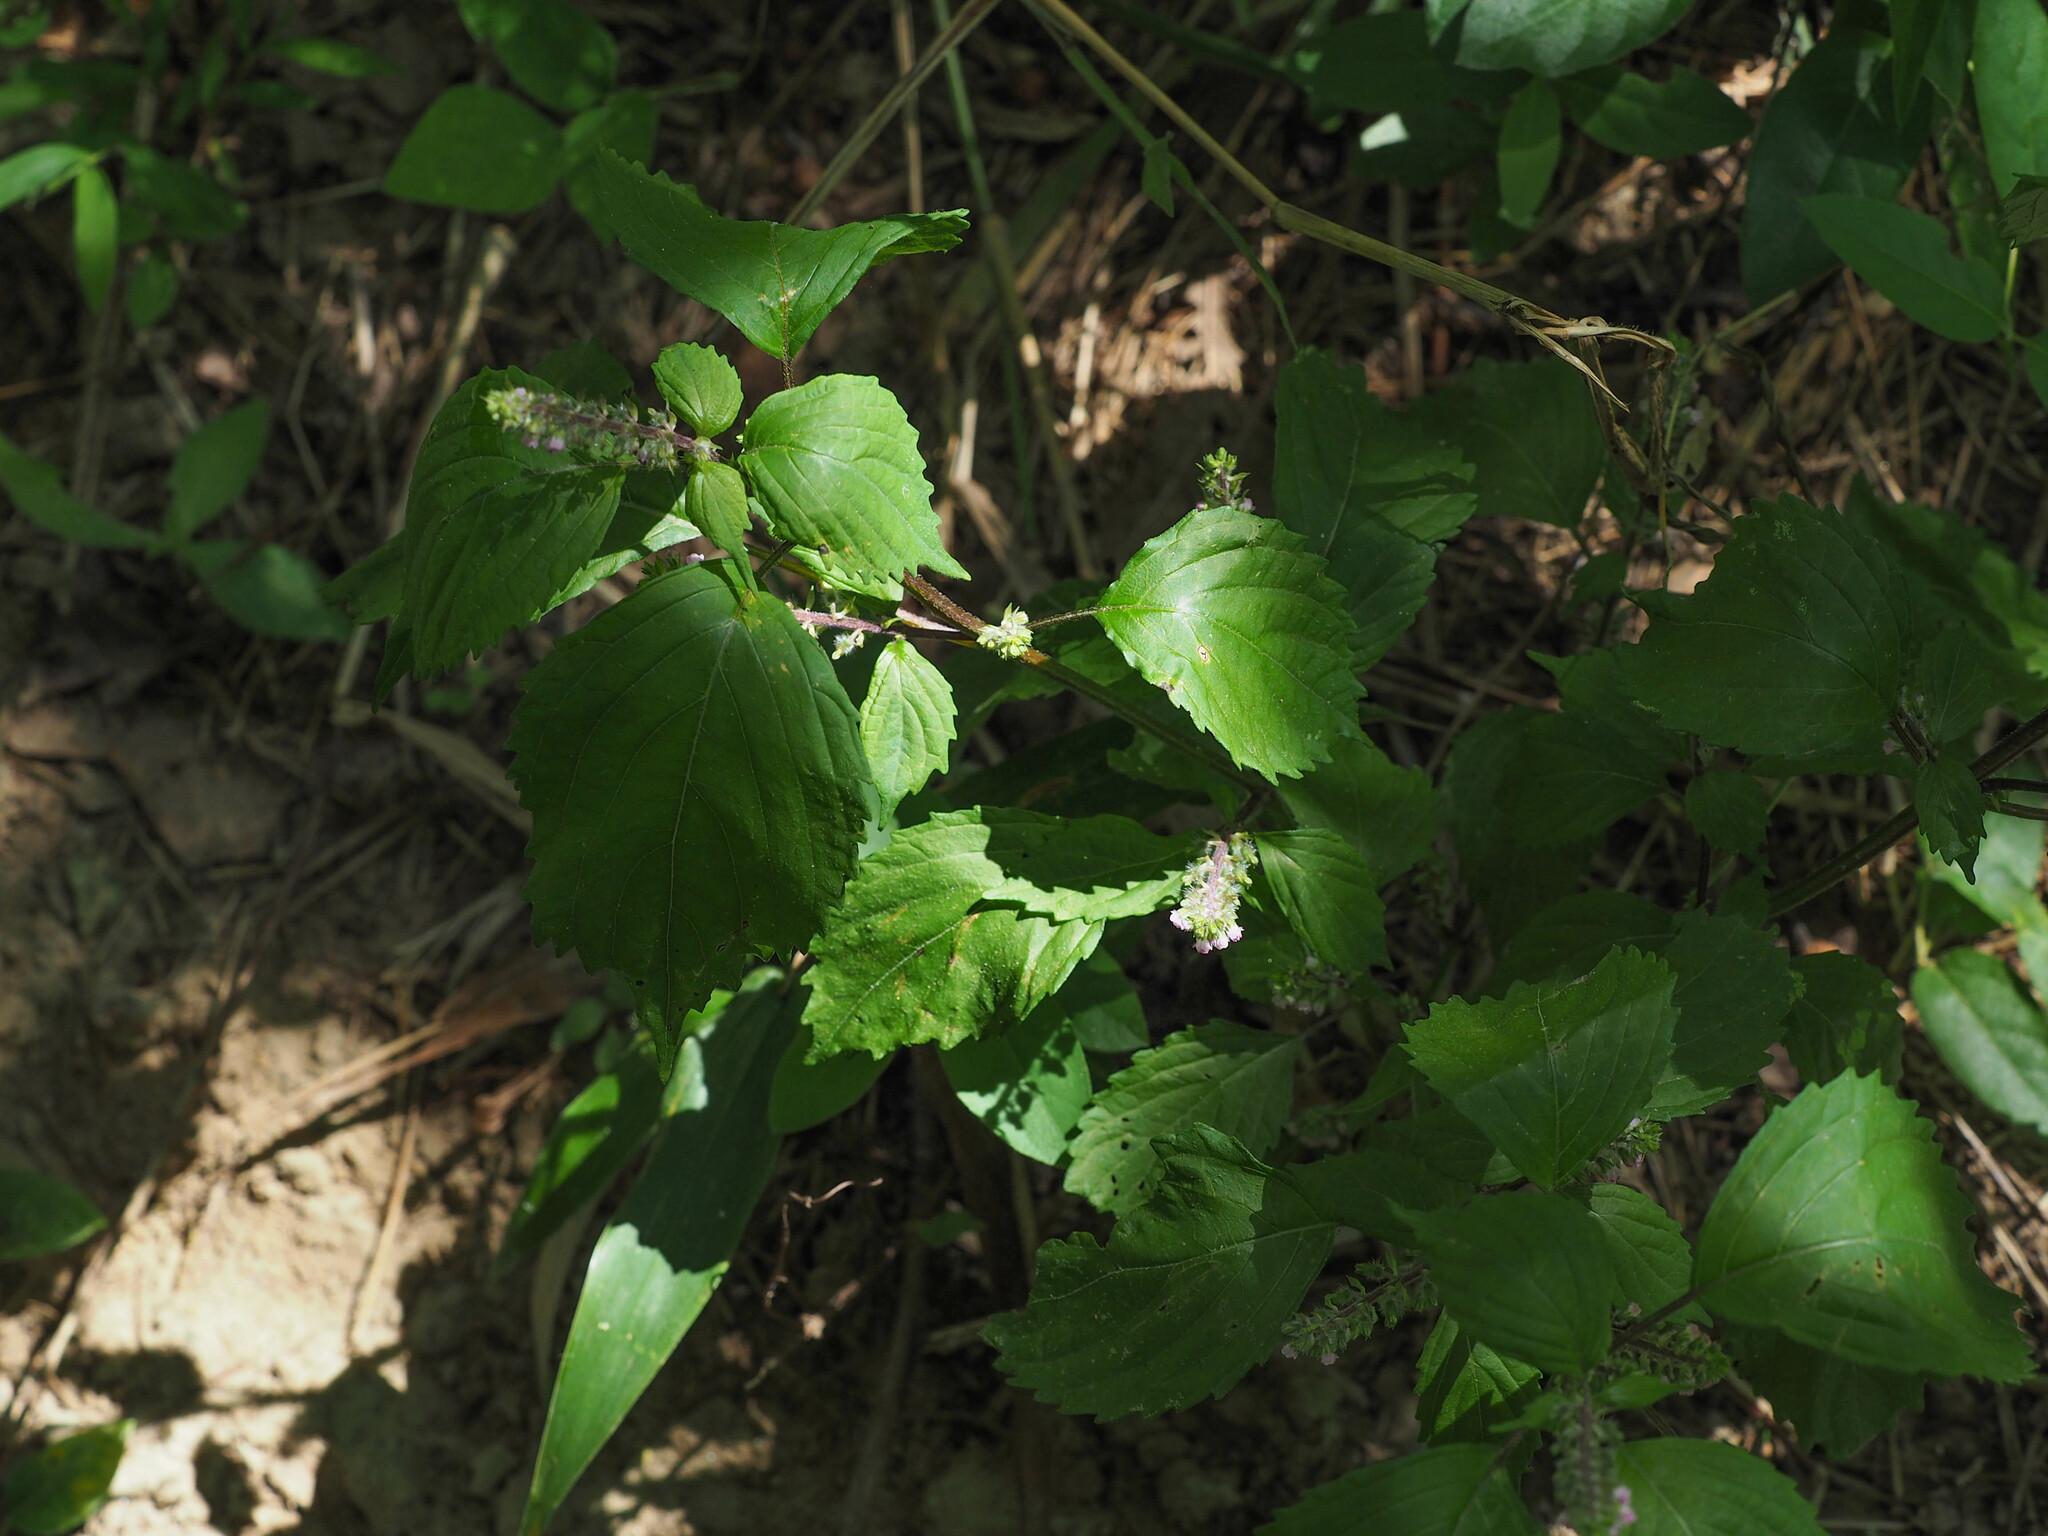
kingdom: Plantae
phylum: Tracheophyta
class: Magnoliopsida
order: Lamiales
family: Lamiaceae
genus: Perilla
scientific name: Perilla frutescens
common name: Perilla
